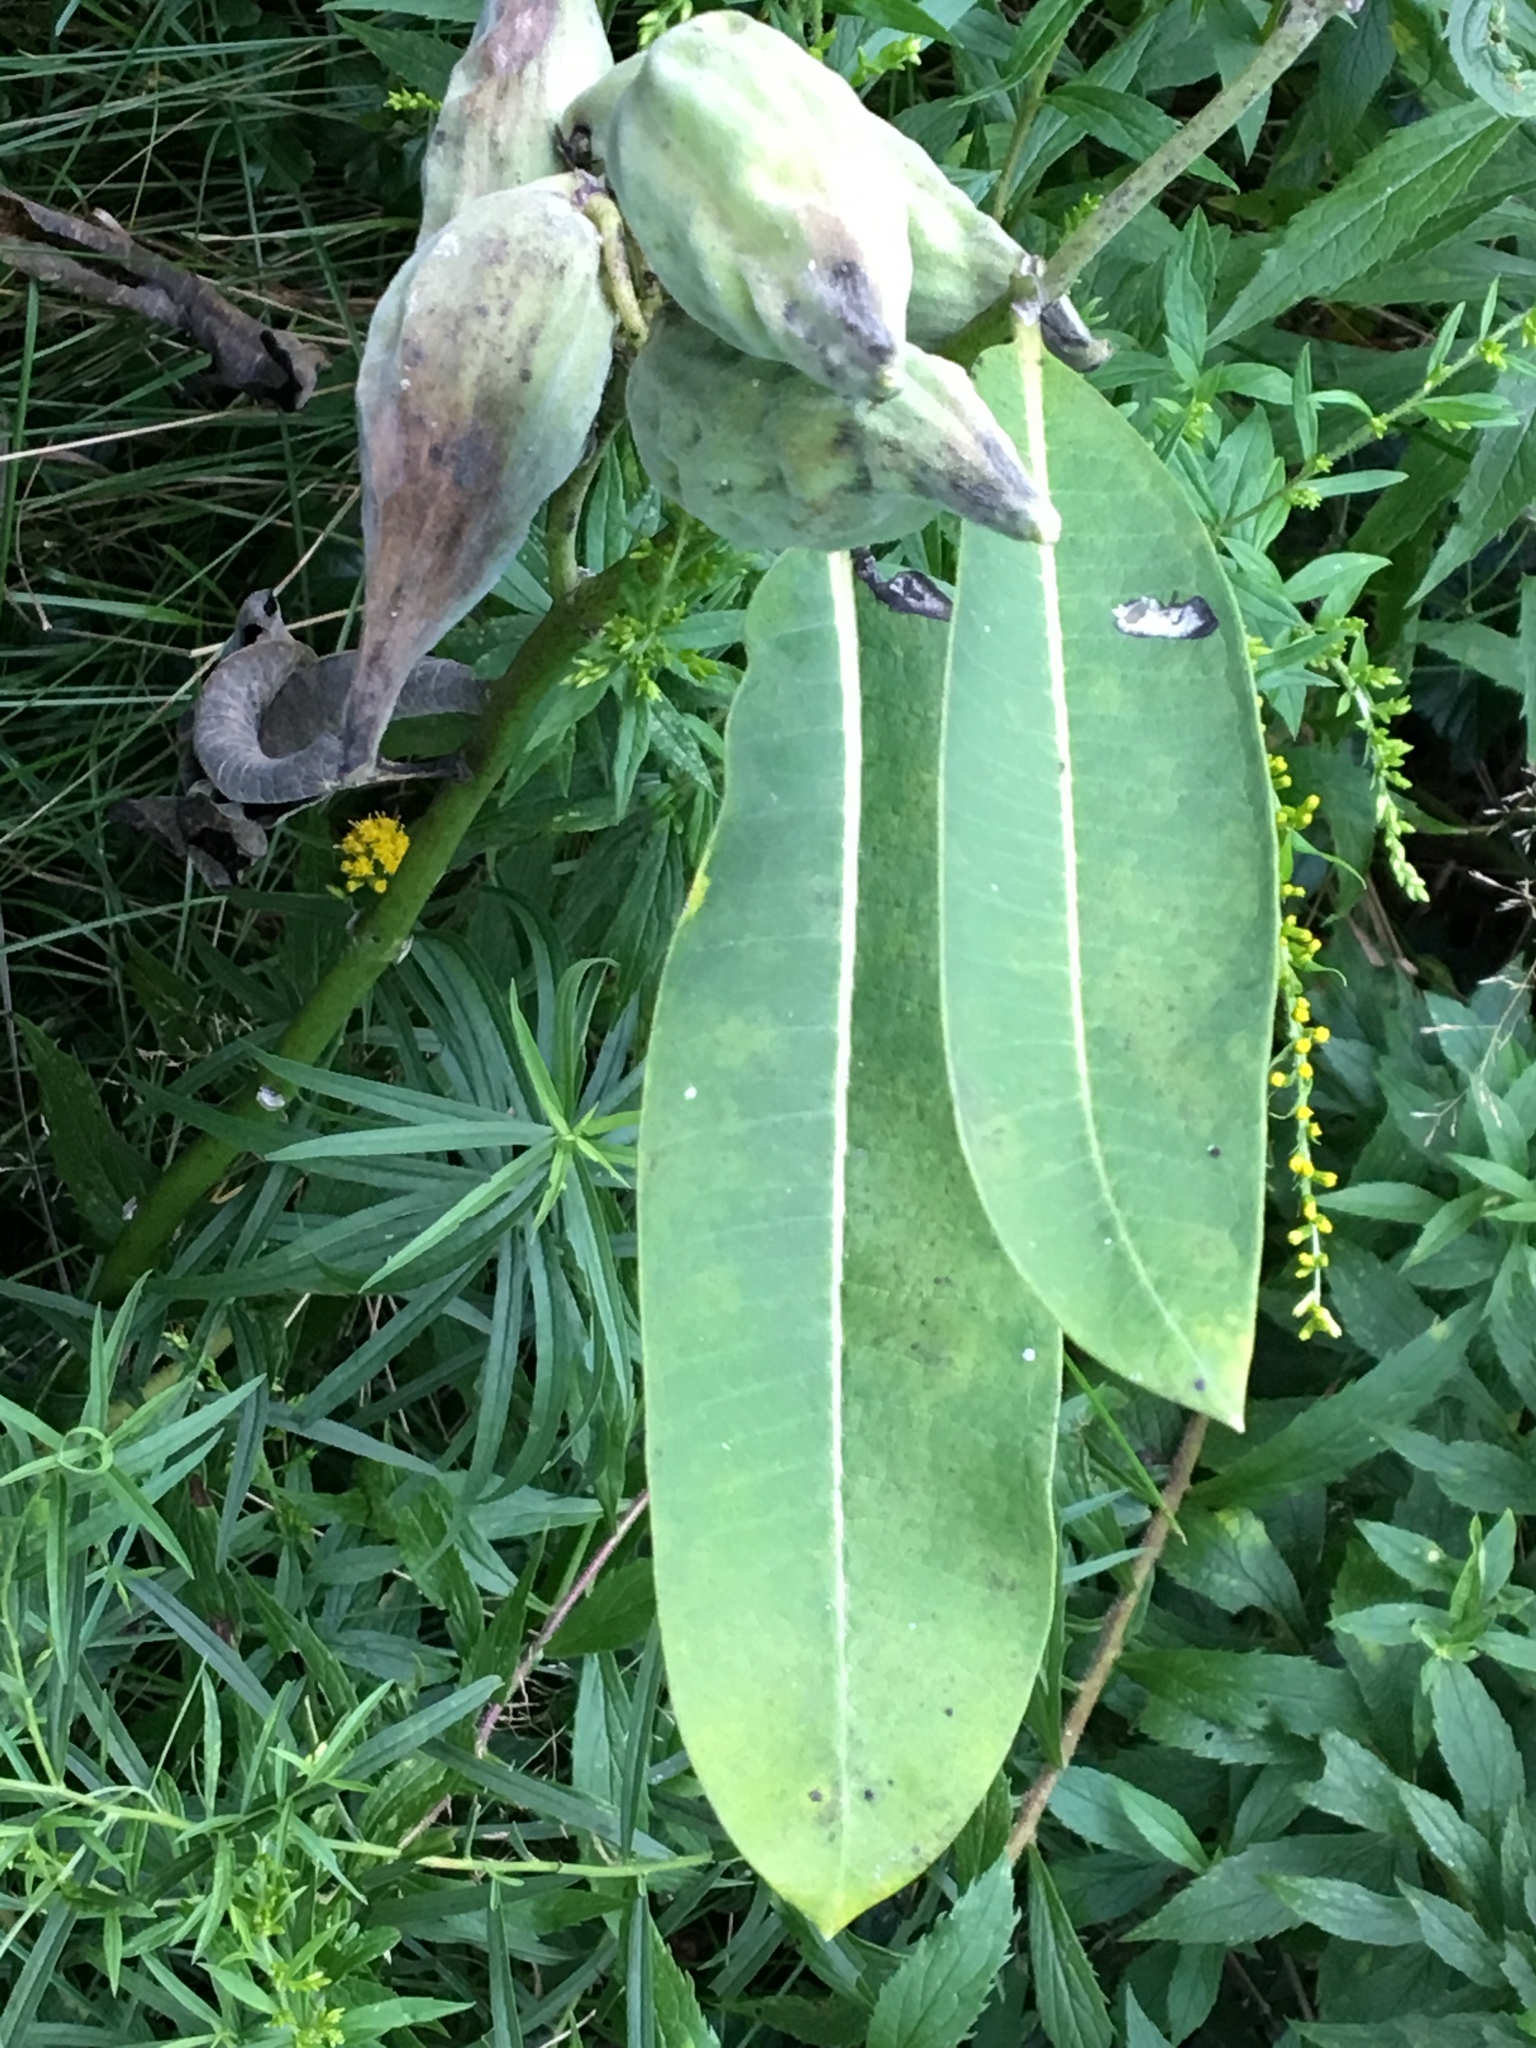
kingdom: Plantae
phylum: Tracheophyta
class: Magnoliopsida
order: Gentianales
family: Apocynaceae
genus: Asclepias
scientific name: Asclepias syriaca
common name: Common milkweed
